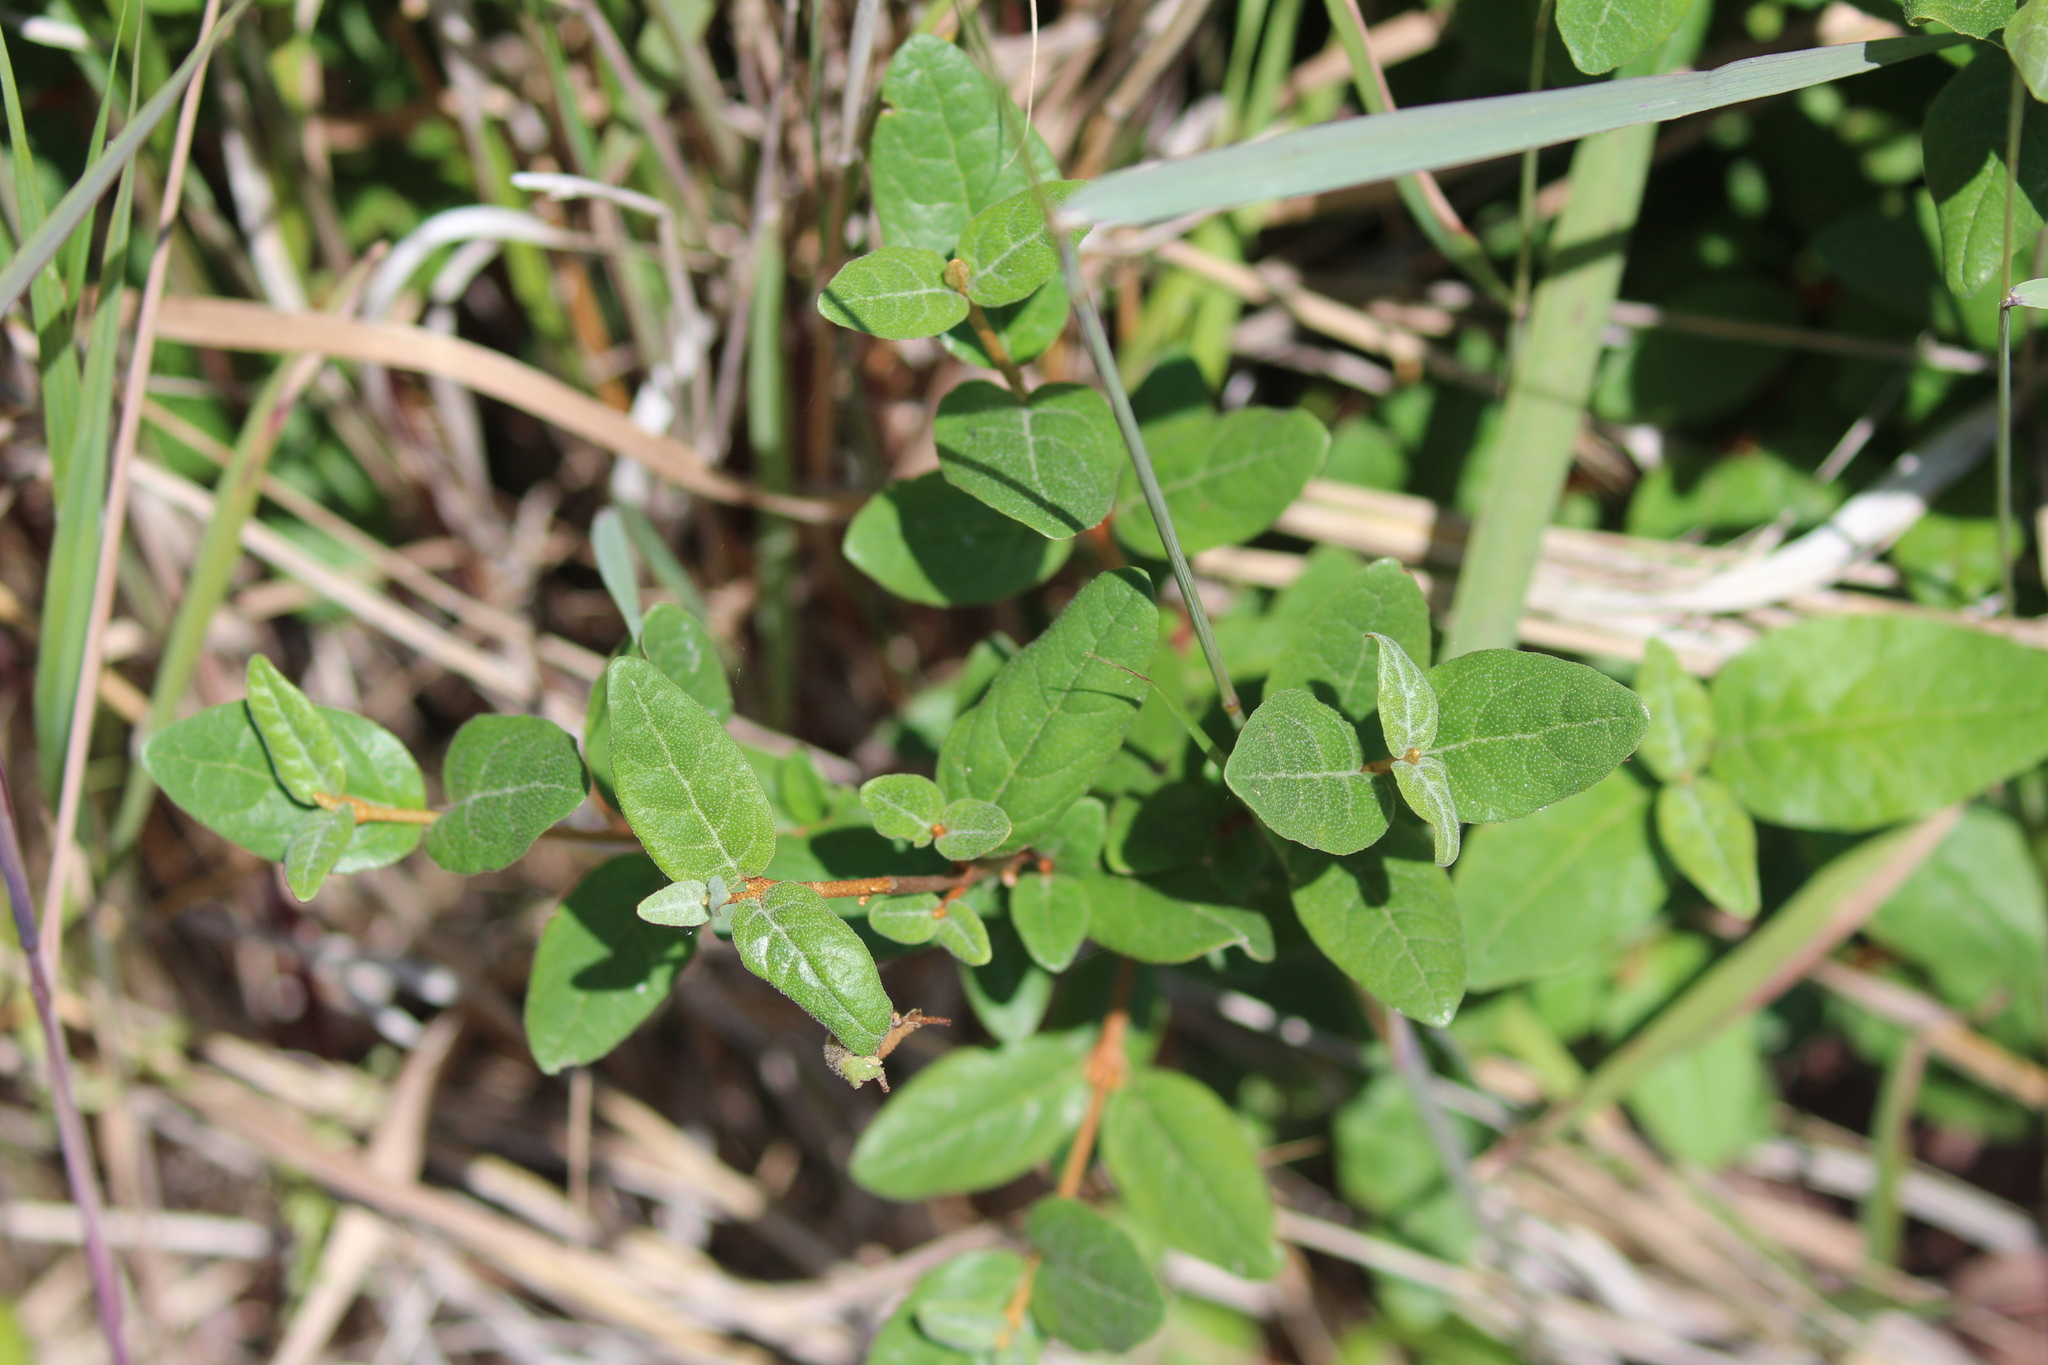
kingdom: Plantae
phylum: Tracheophyta
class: Magnoliopsida
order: Rosales
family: Elaeagnaceae
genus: Shepherdia
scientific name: Shepherdia canadensis
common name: Soapberry
